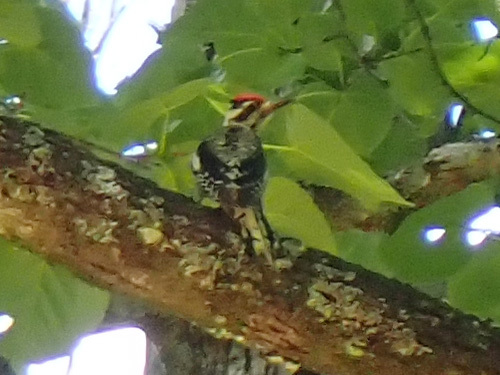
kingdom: Animalia
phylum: Chordata
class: Aves
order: Piciformes
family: Picidae
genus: Sphyrapicus
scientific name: Sphyrapicus varius
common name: Yellow-bellied sapsucker
